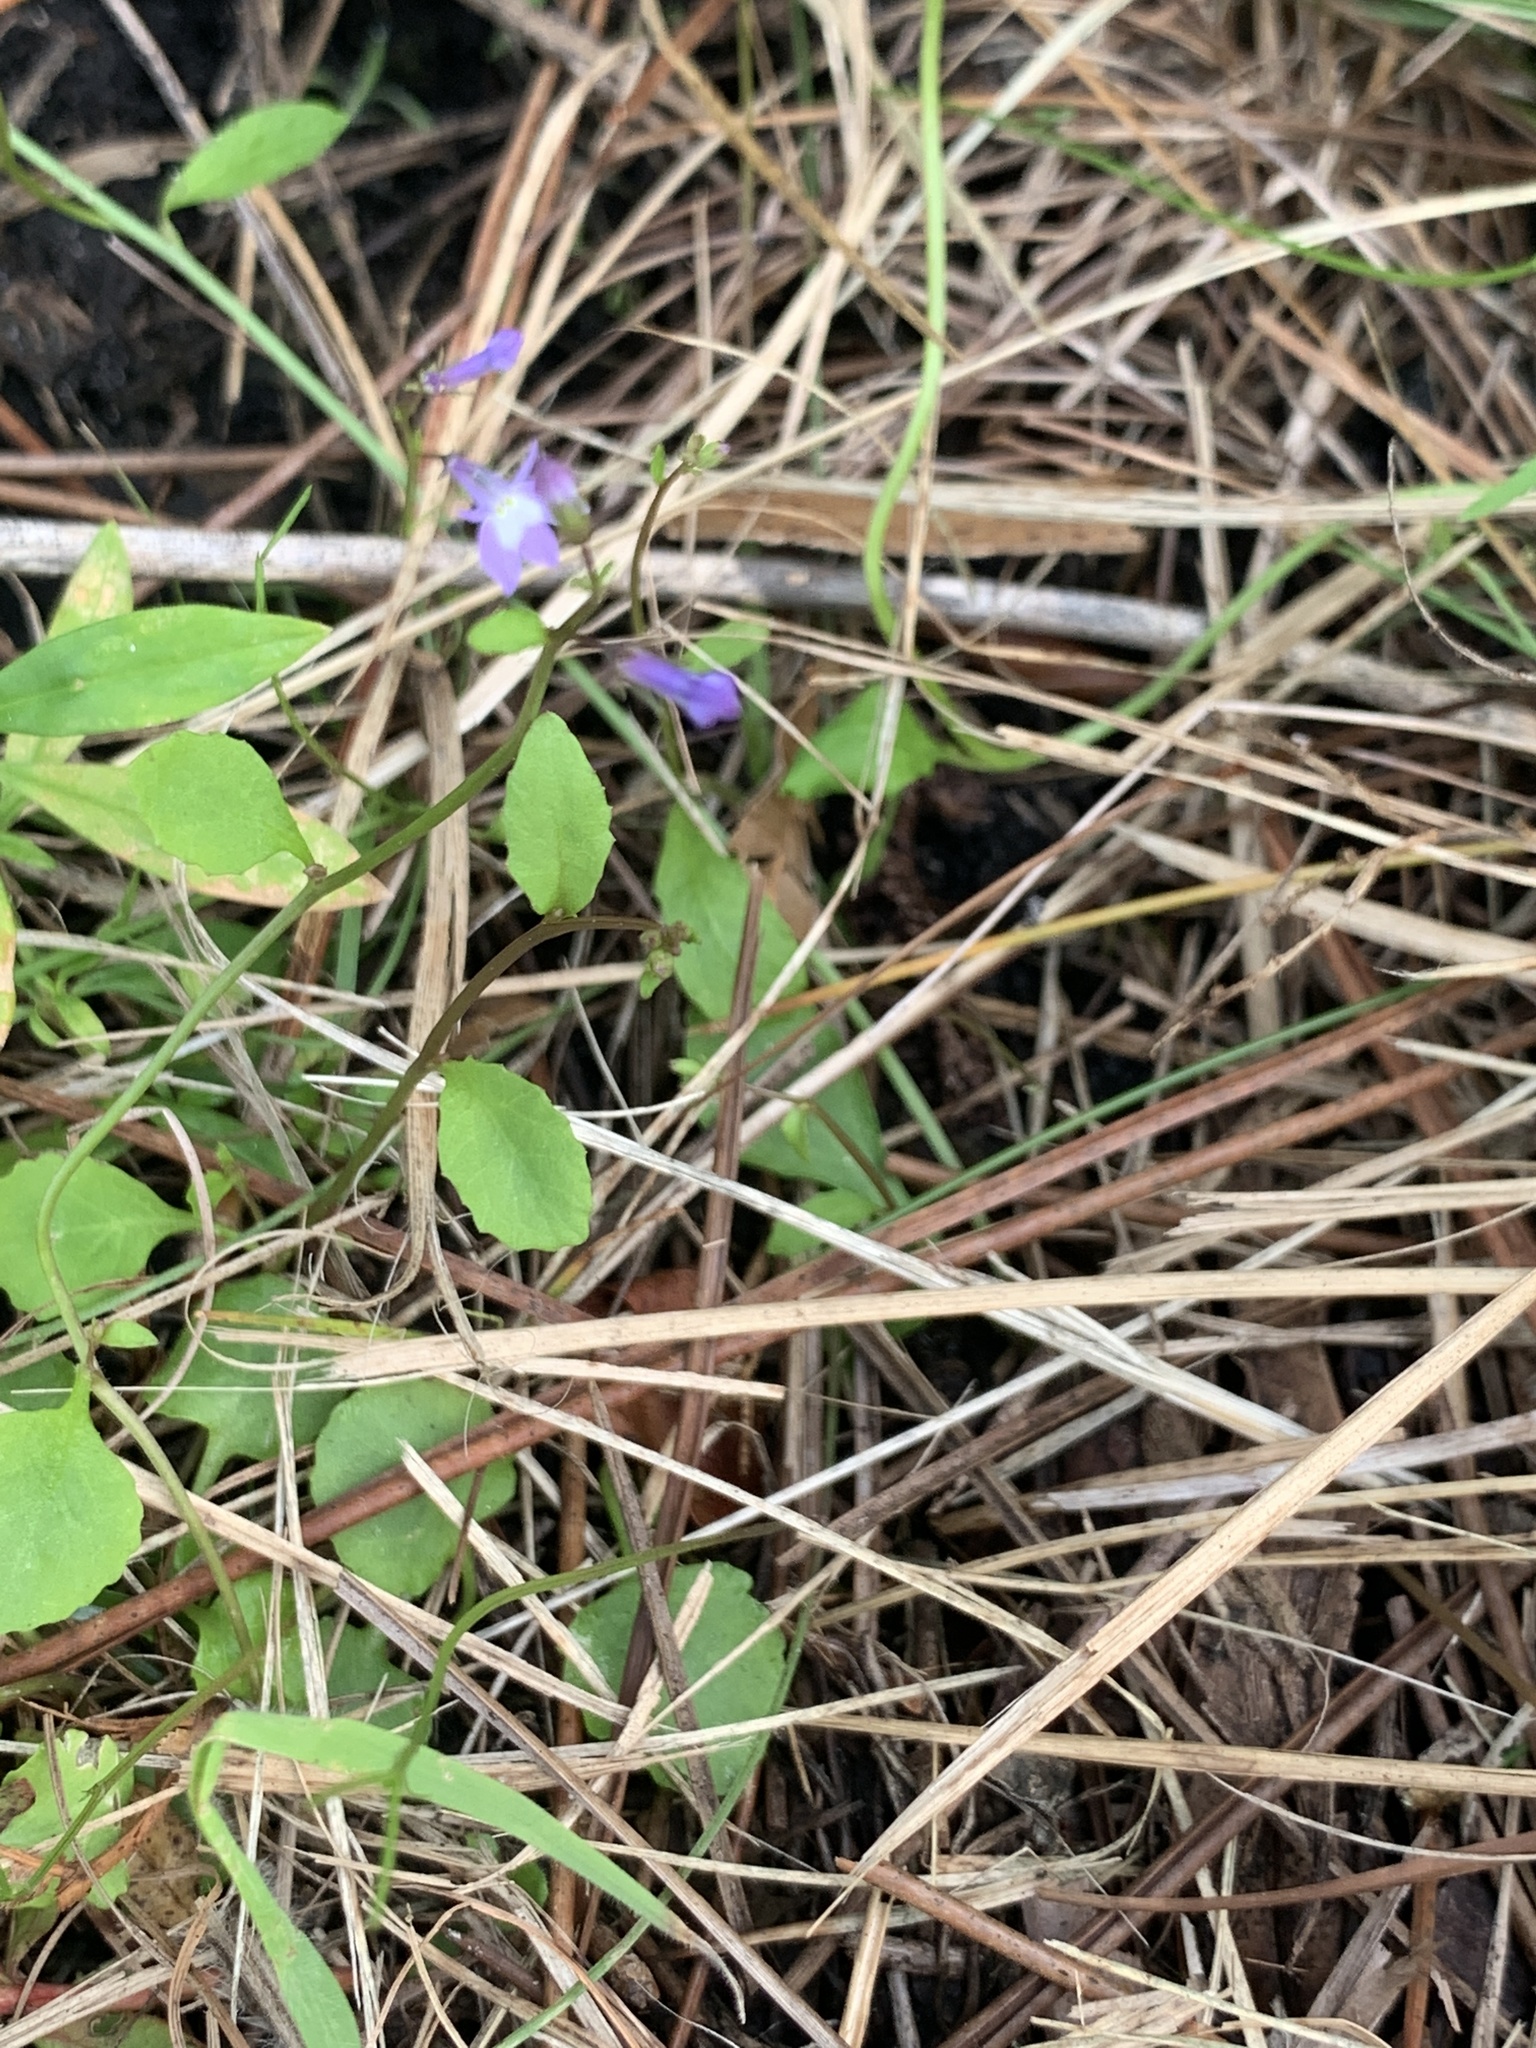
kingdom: Plantae
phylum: Tracheophyta
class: Magnoliopsida
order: Asterales
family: Campanulaceae
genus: Lobelia
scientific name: Lobelia feayana
